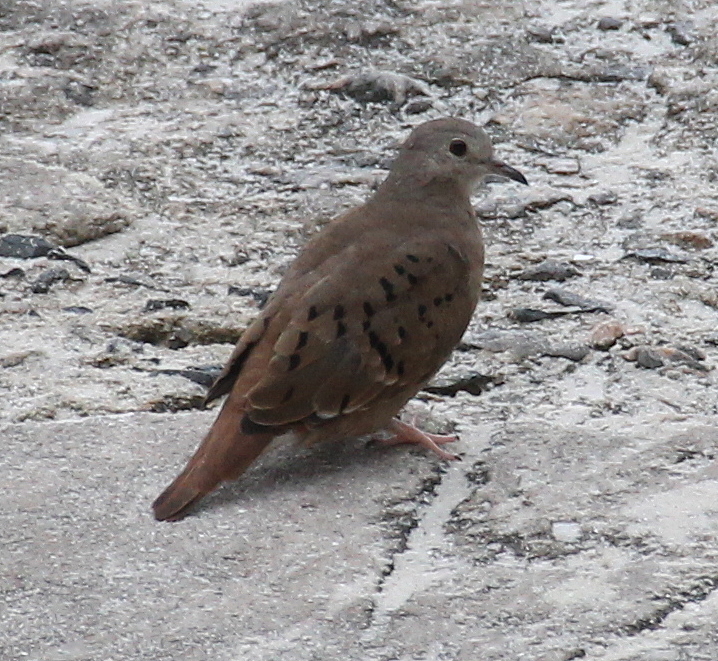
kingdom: Animalia
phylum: Chordata
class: Aves
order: Columbiformes
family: Columbidae
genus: Columbina
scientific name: Columbina talpacoti
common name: Ruddy ground dove
